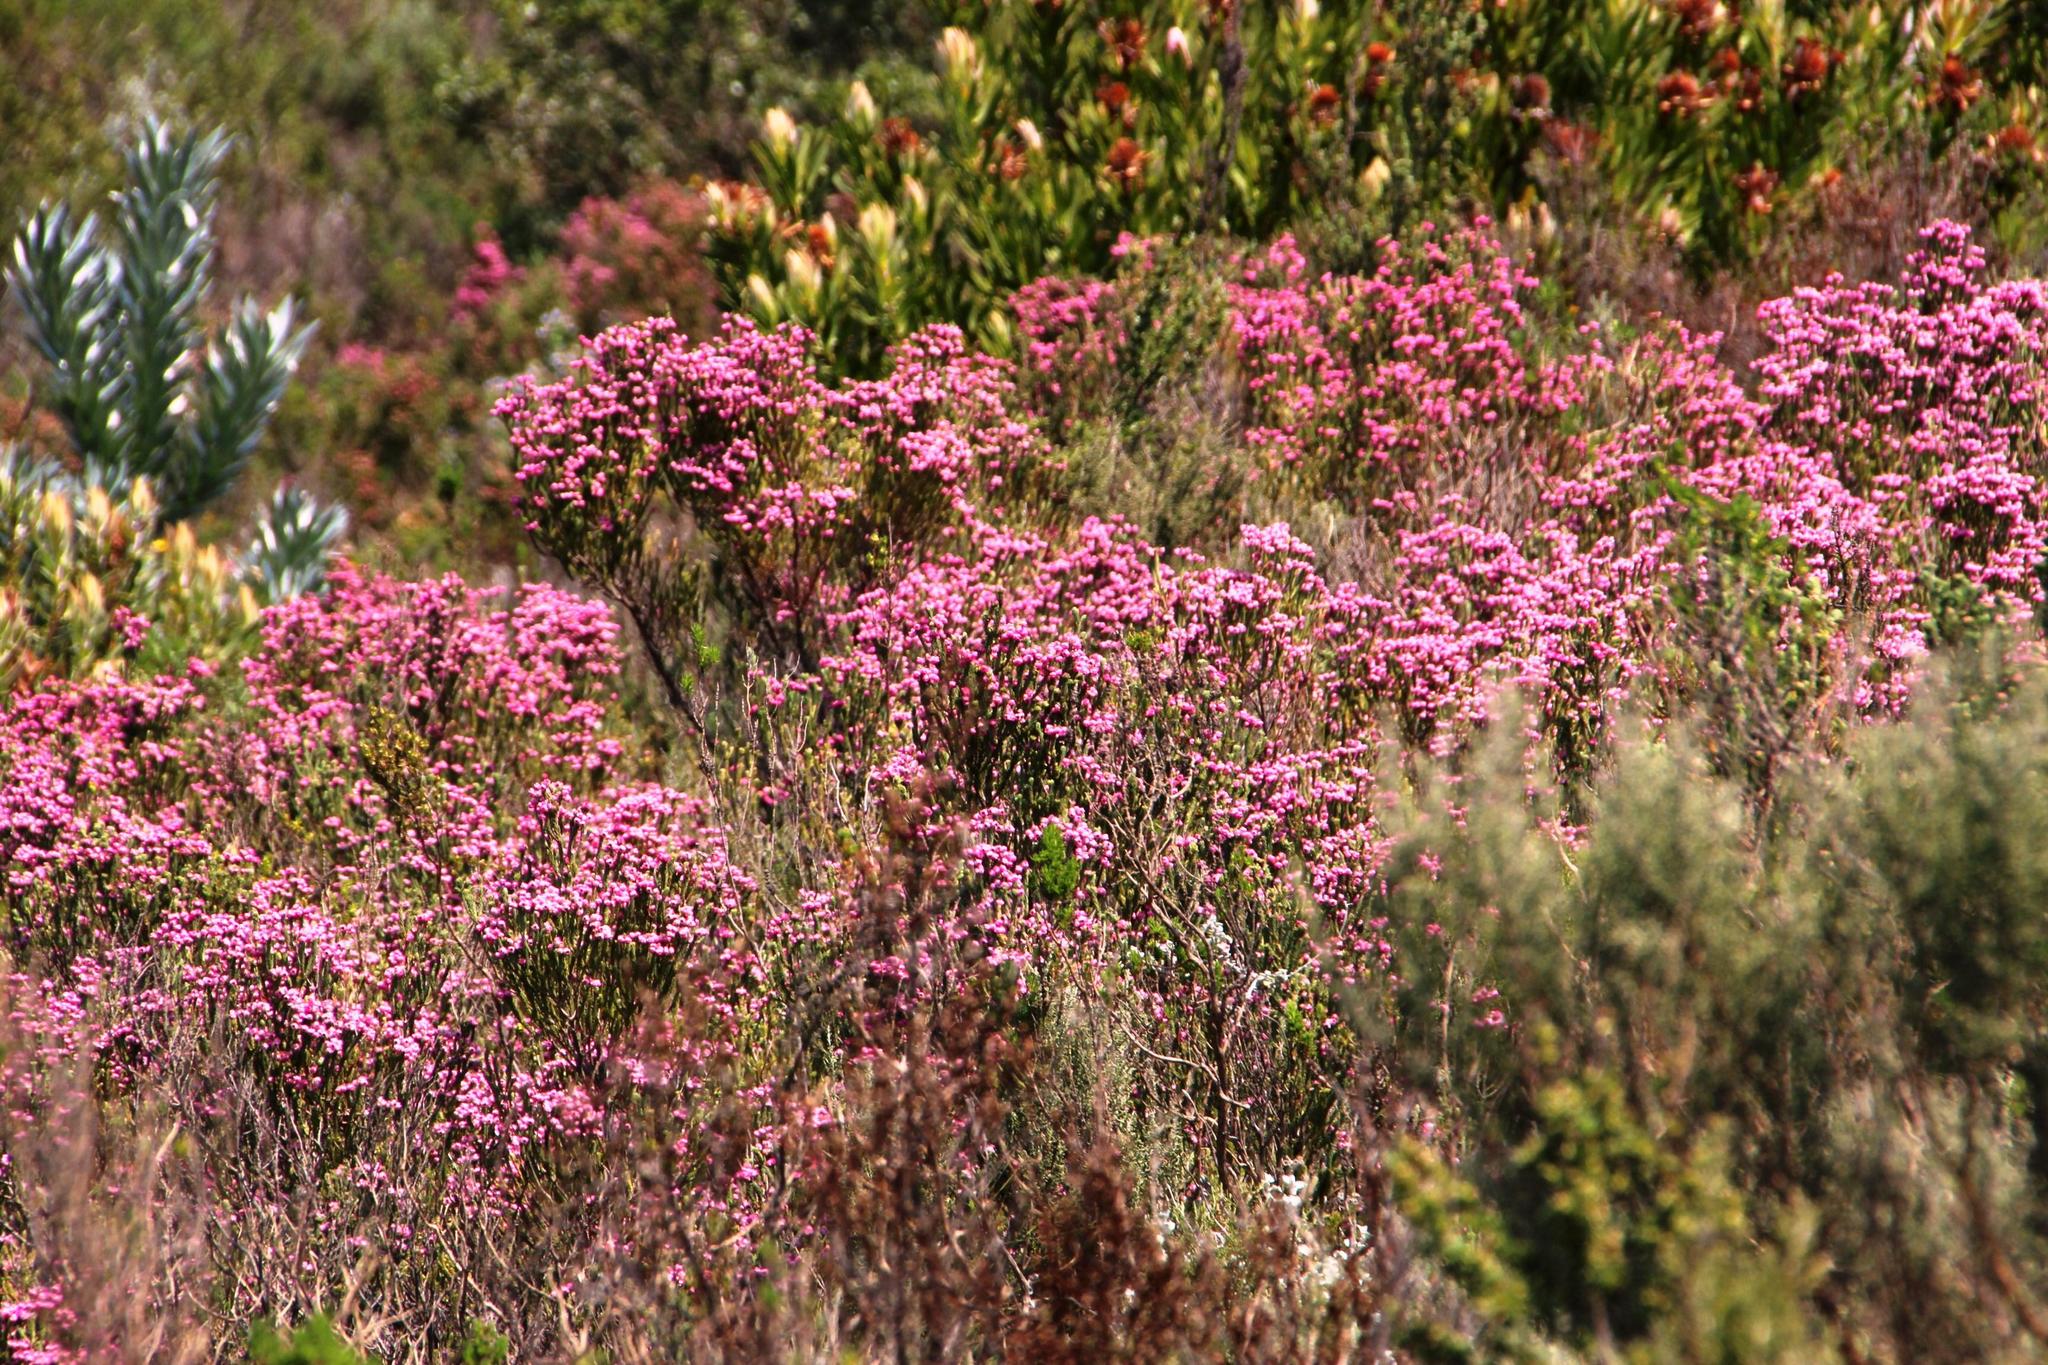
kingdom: Plantae
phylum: Tracheophyta
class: Magnoliopsida
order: Ericales
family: Ericaceae
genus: Erica
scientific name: Erica baccans
